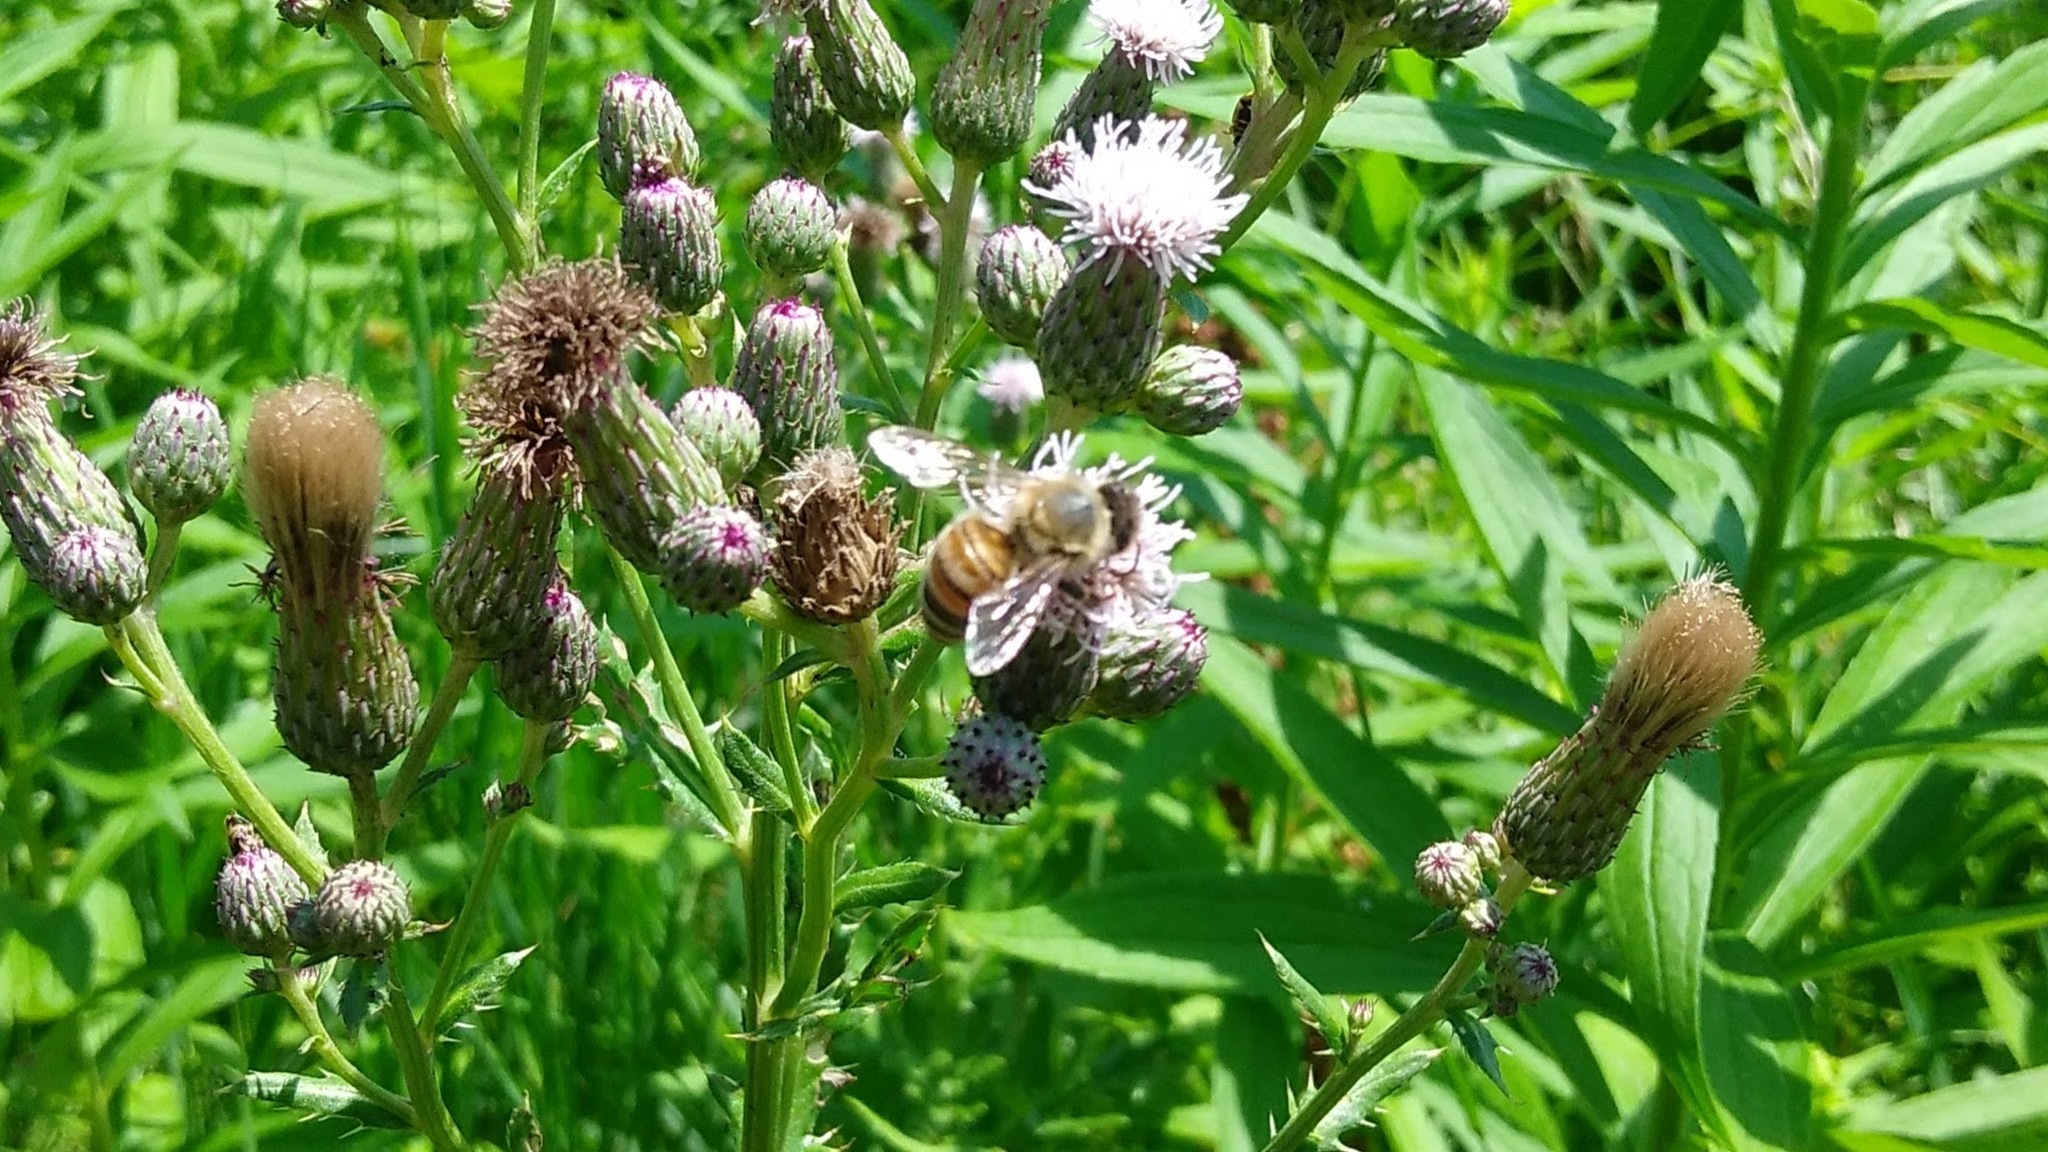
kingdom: Animalia
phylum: Arthropoda
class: Insecta
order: Hymenoptera
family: Apidae
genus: Apis
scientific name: Apis mellifera
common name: Honey bee
